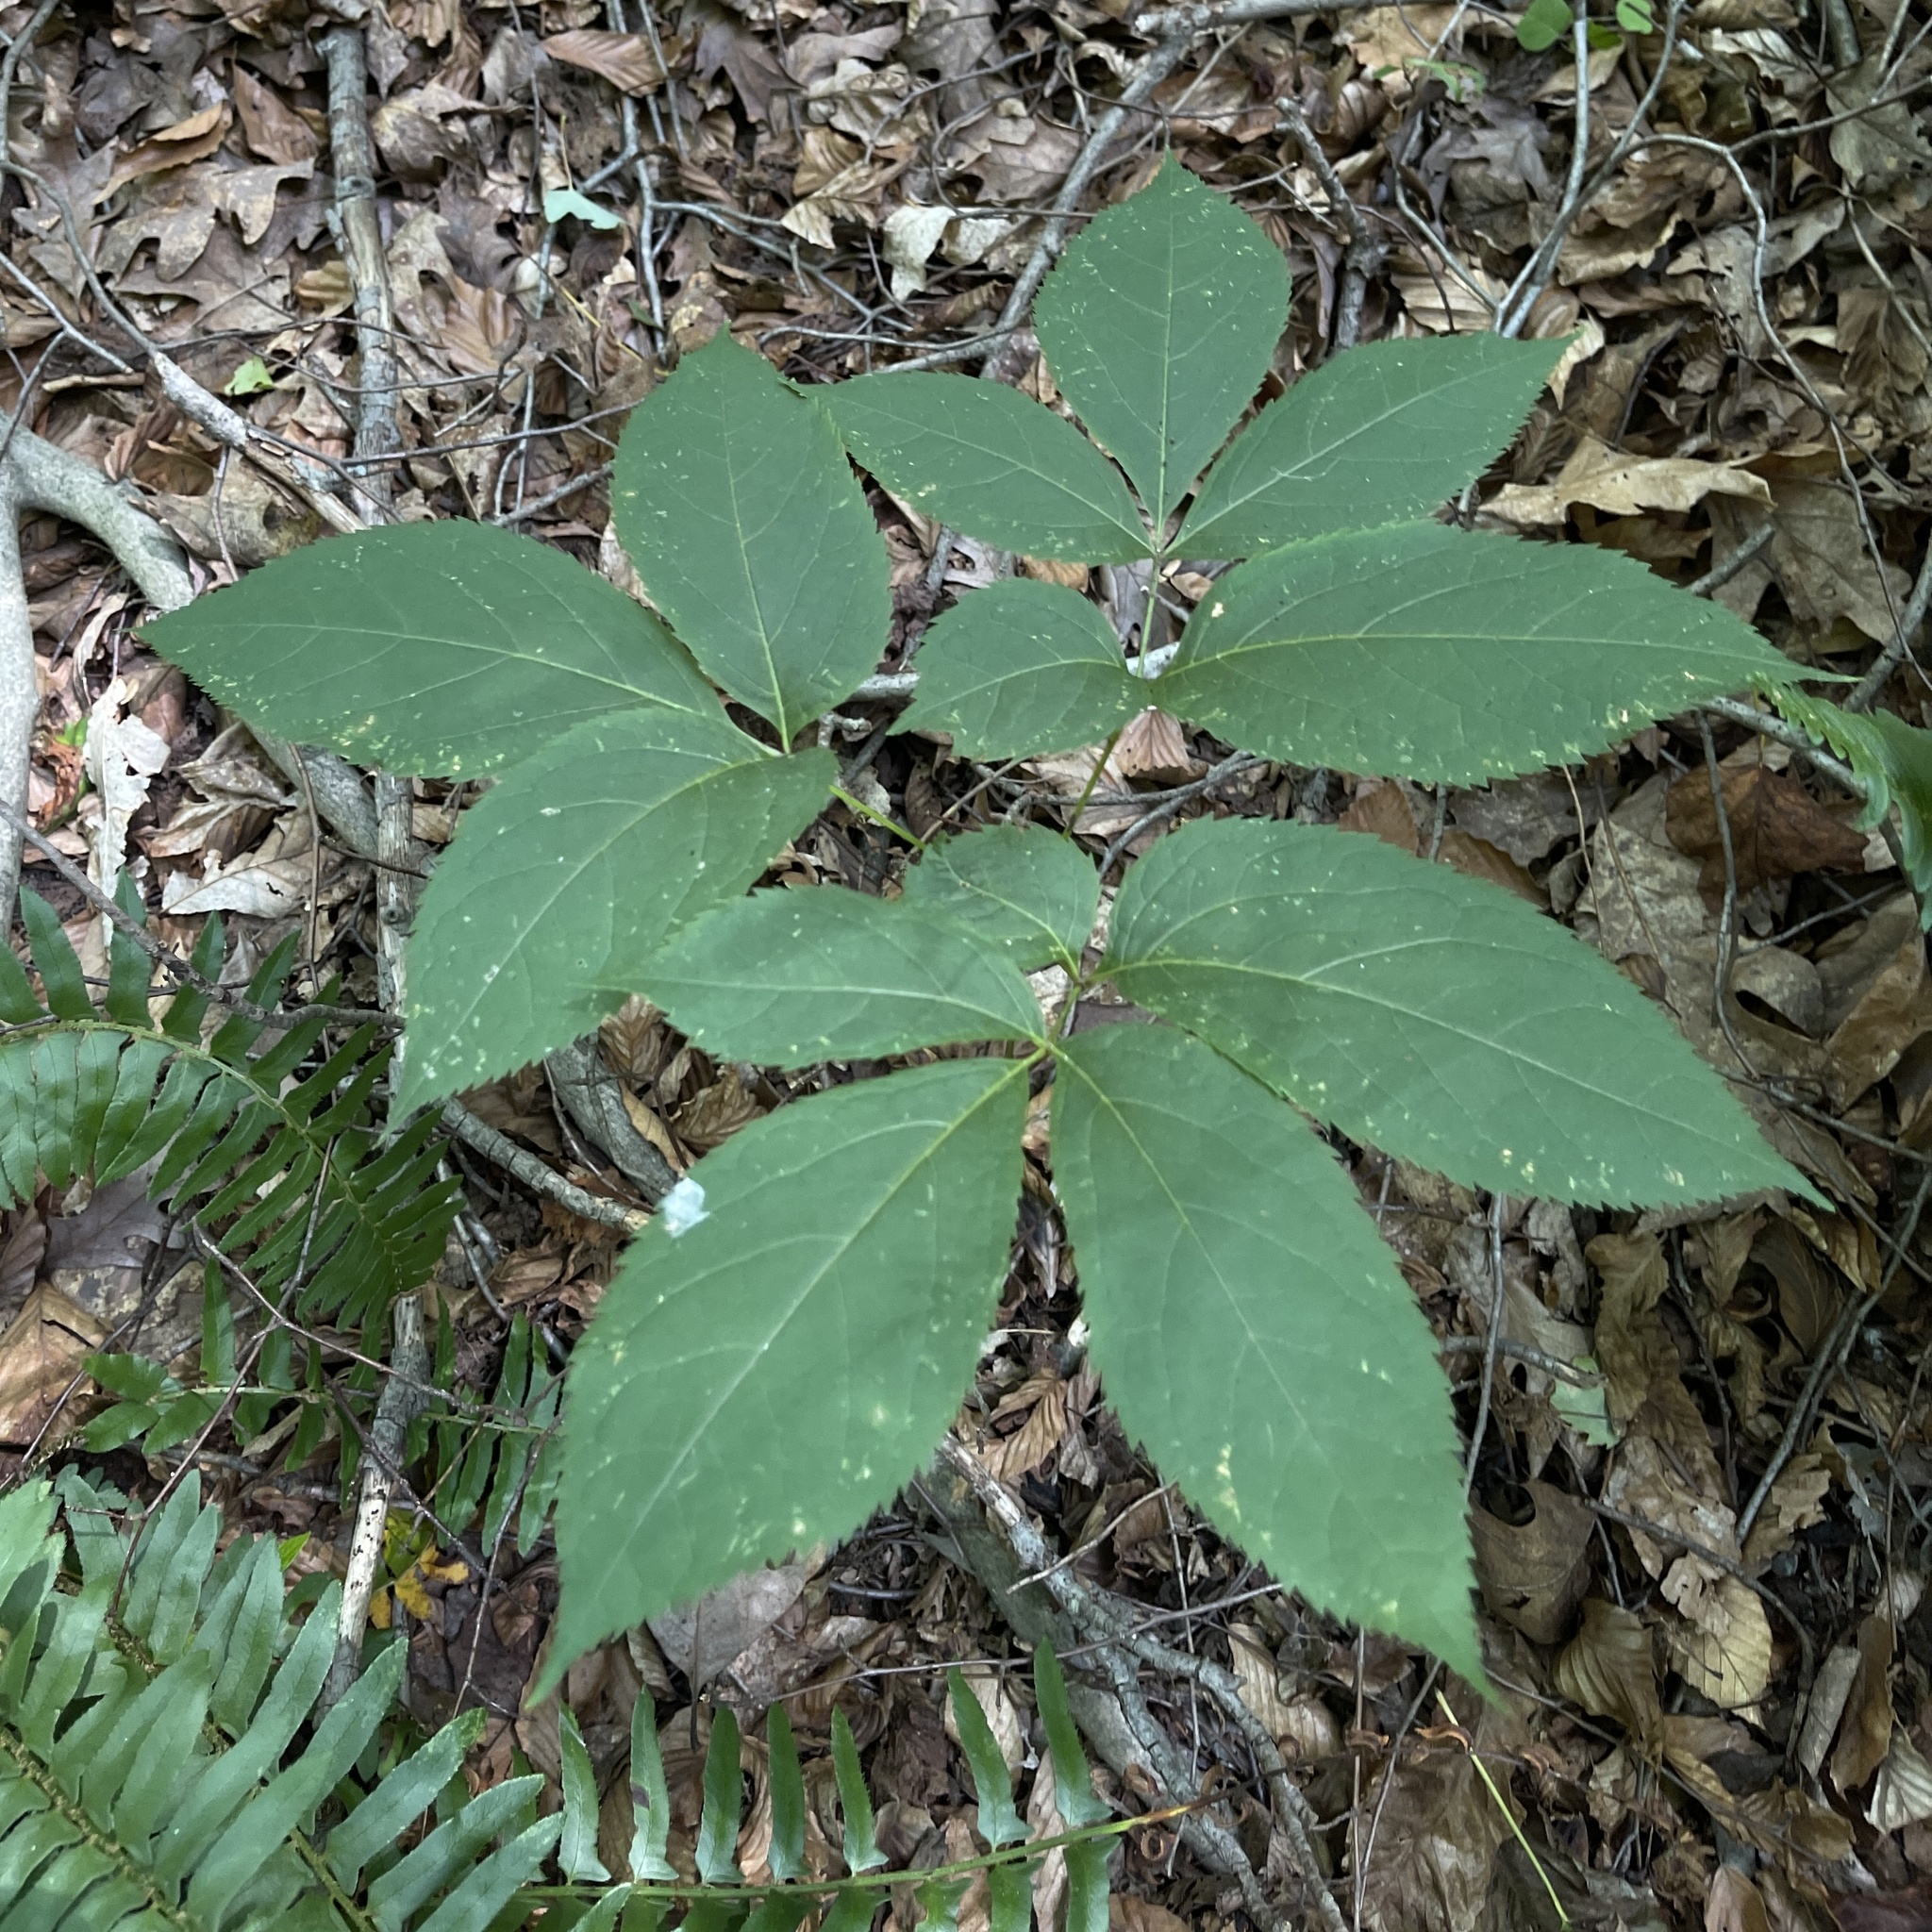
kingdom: Plantae
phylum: Tracheophyta
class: Magnoliopsida
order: Apiales
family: Araliaceae
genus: Aralia
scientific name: Aralia nudicaulis
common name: Wild sarsaparilla
